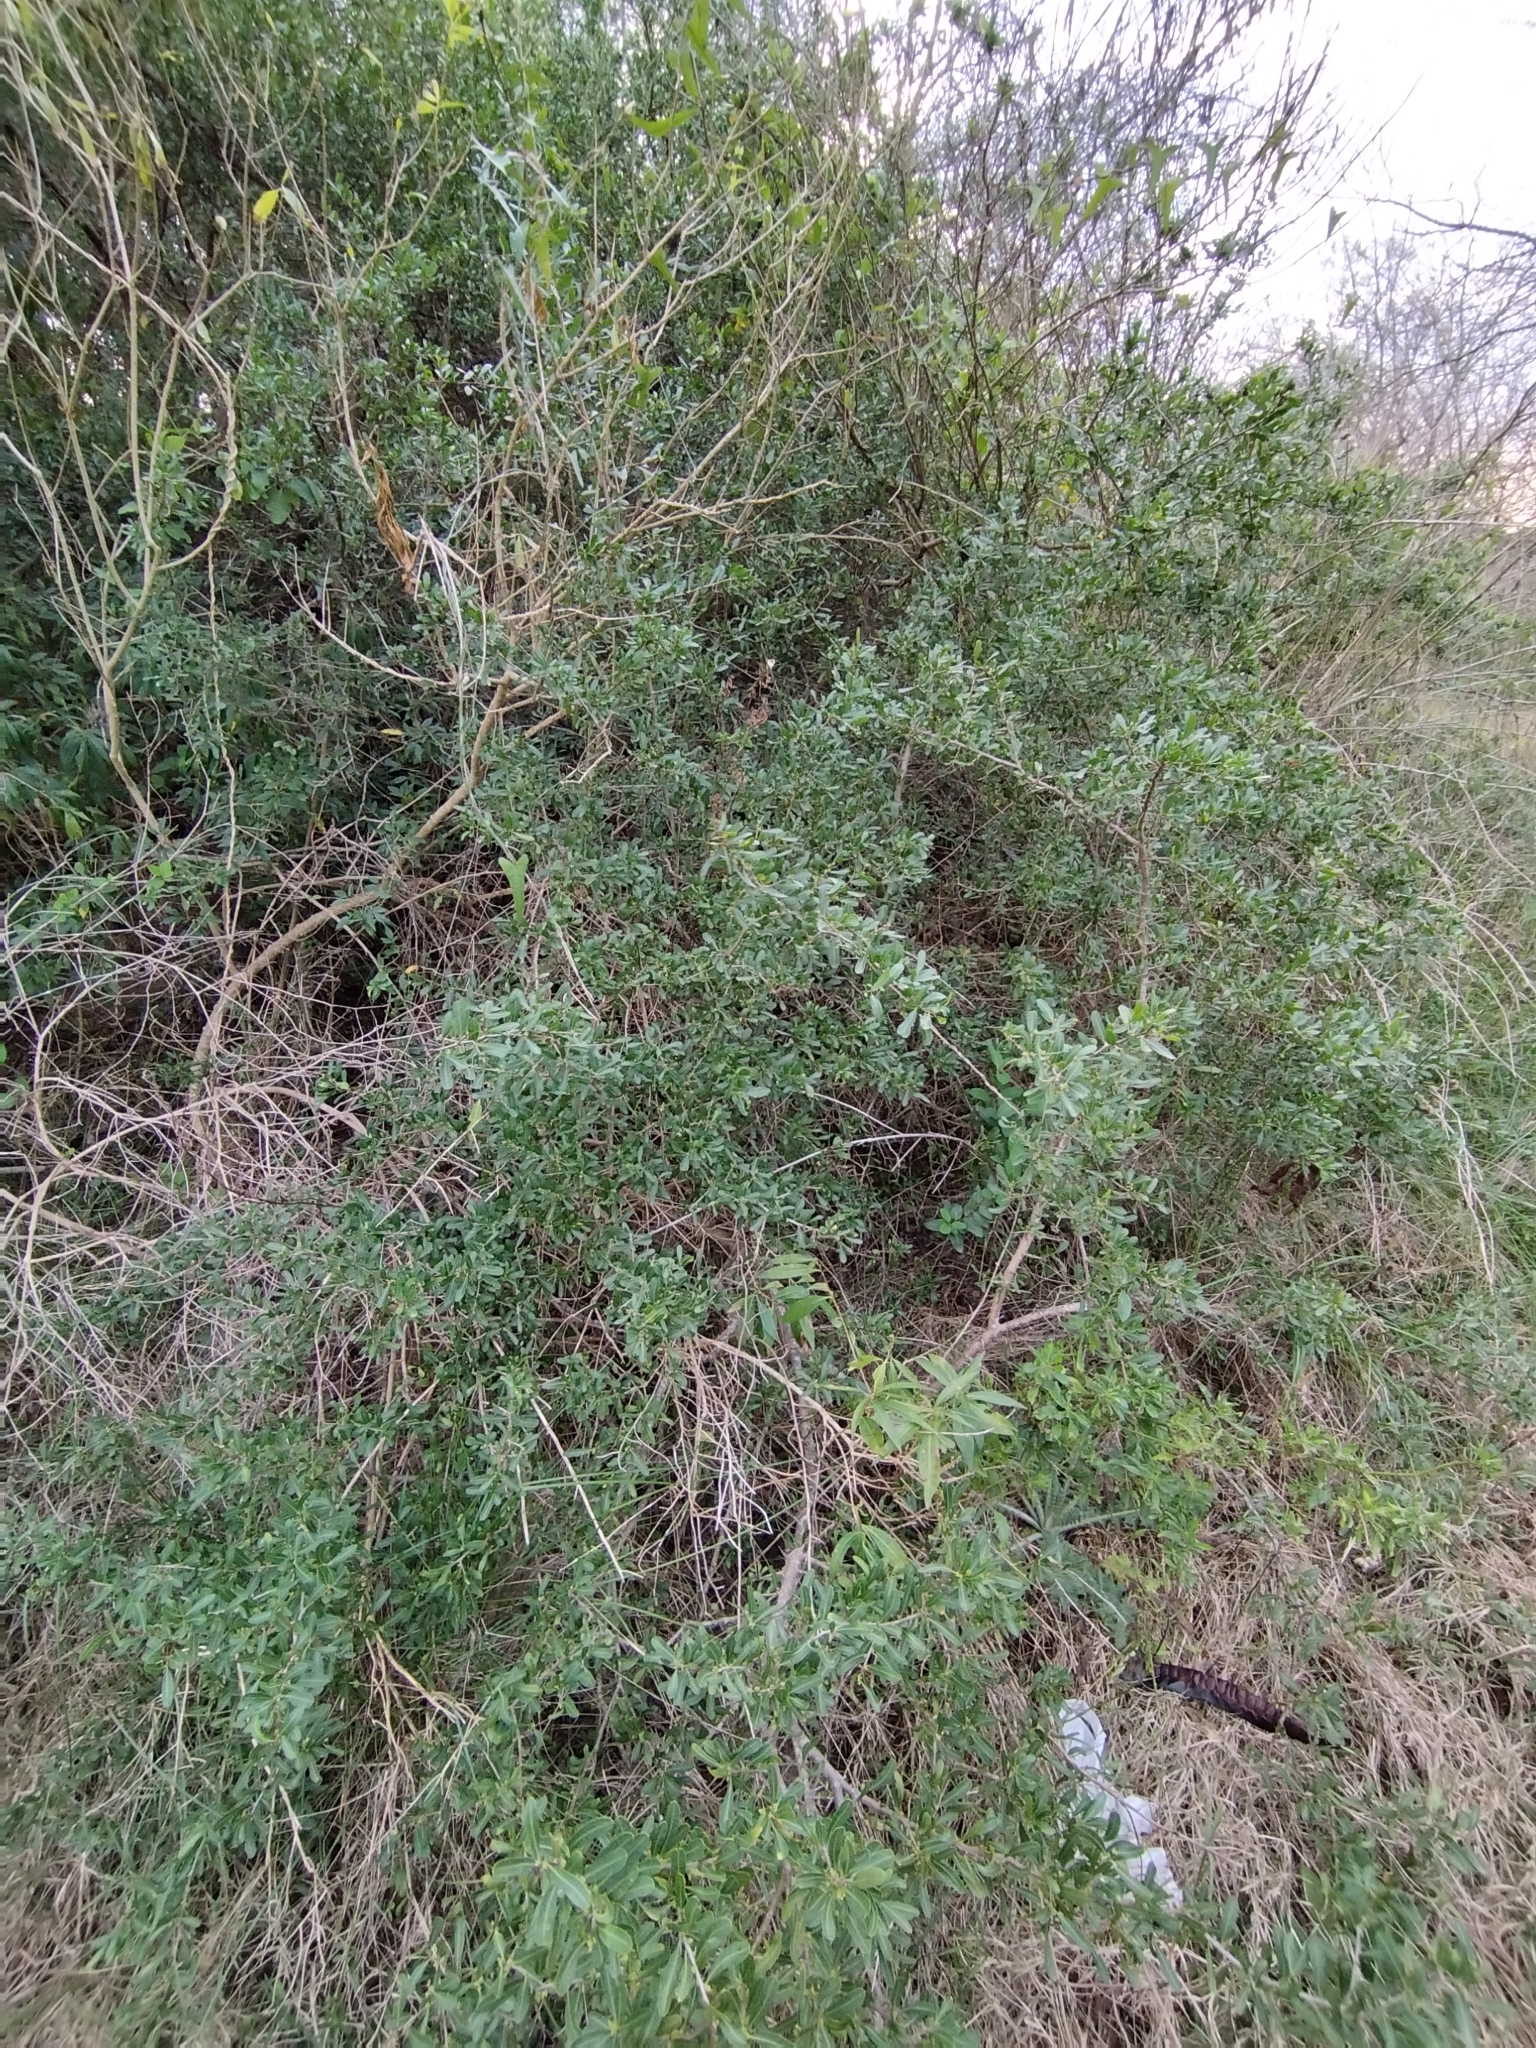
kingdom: Plantae
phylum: Tracheophyta
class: Magnoliopsida
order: Sapindales
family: Anacardiaceae
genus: Schinus
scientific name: Schinus longifolia
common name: Longleaf peppertree
